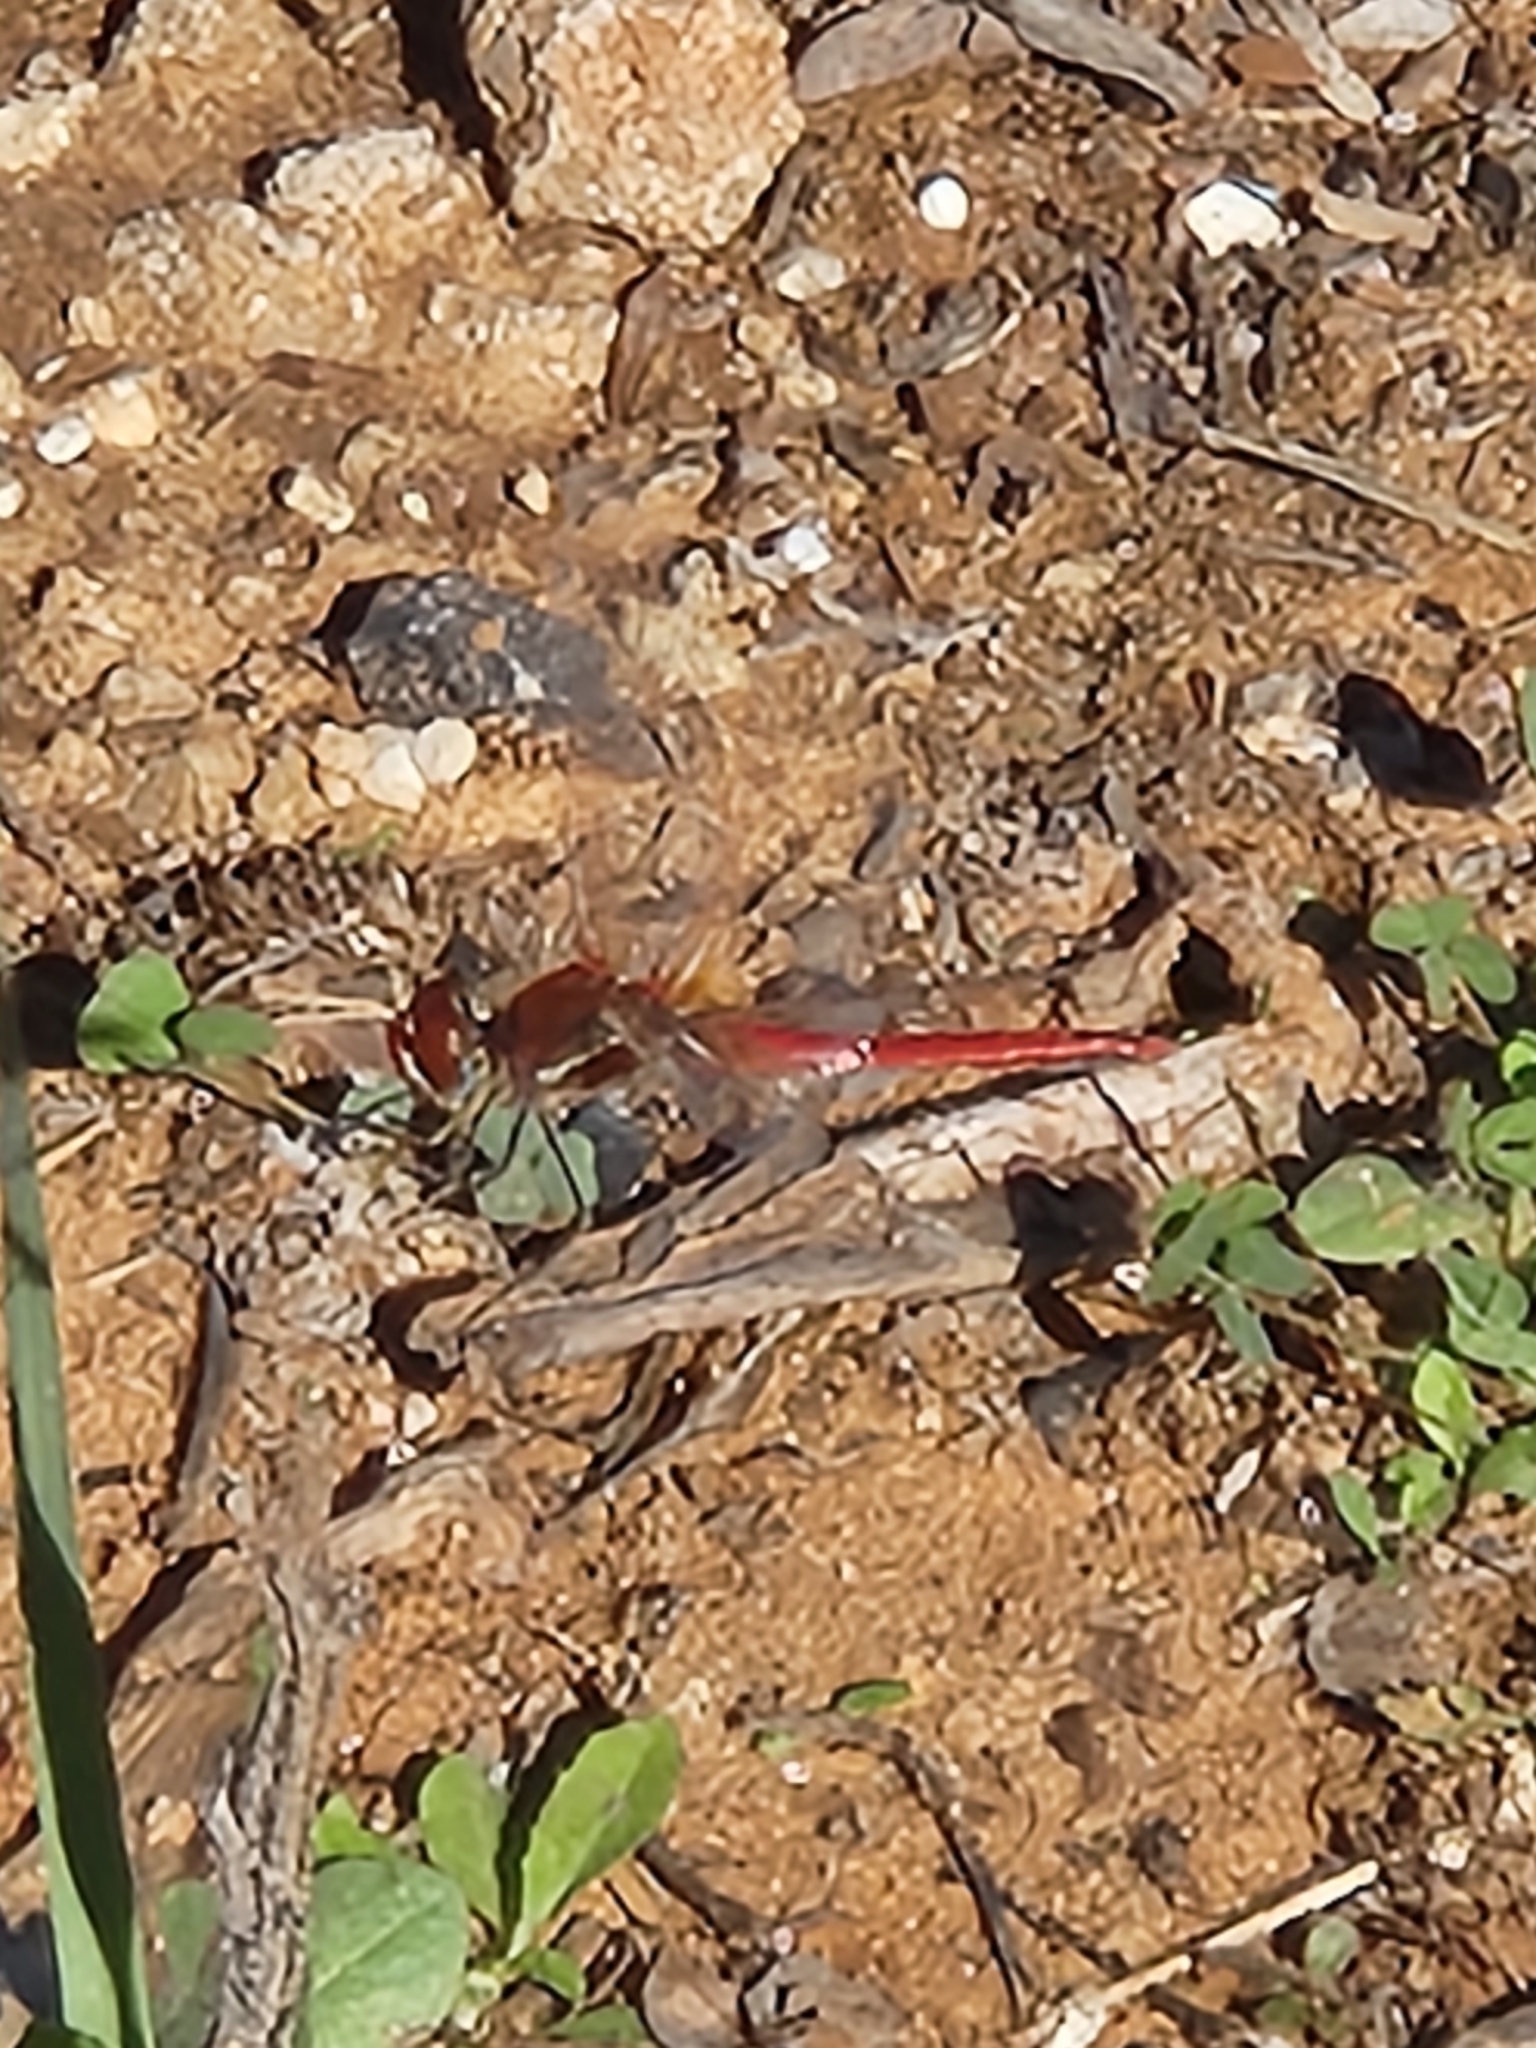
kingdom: Animalia
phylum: Arthropoda
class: Insecta
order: Odonata
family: Libellulidae
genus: Sympetrum
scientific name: Sympetrum fonscolombii
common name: Red-veined darter
